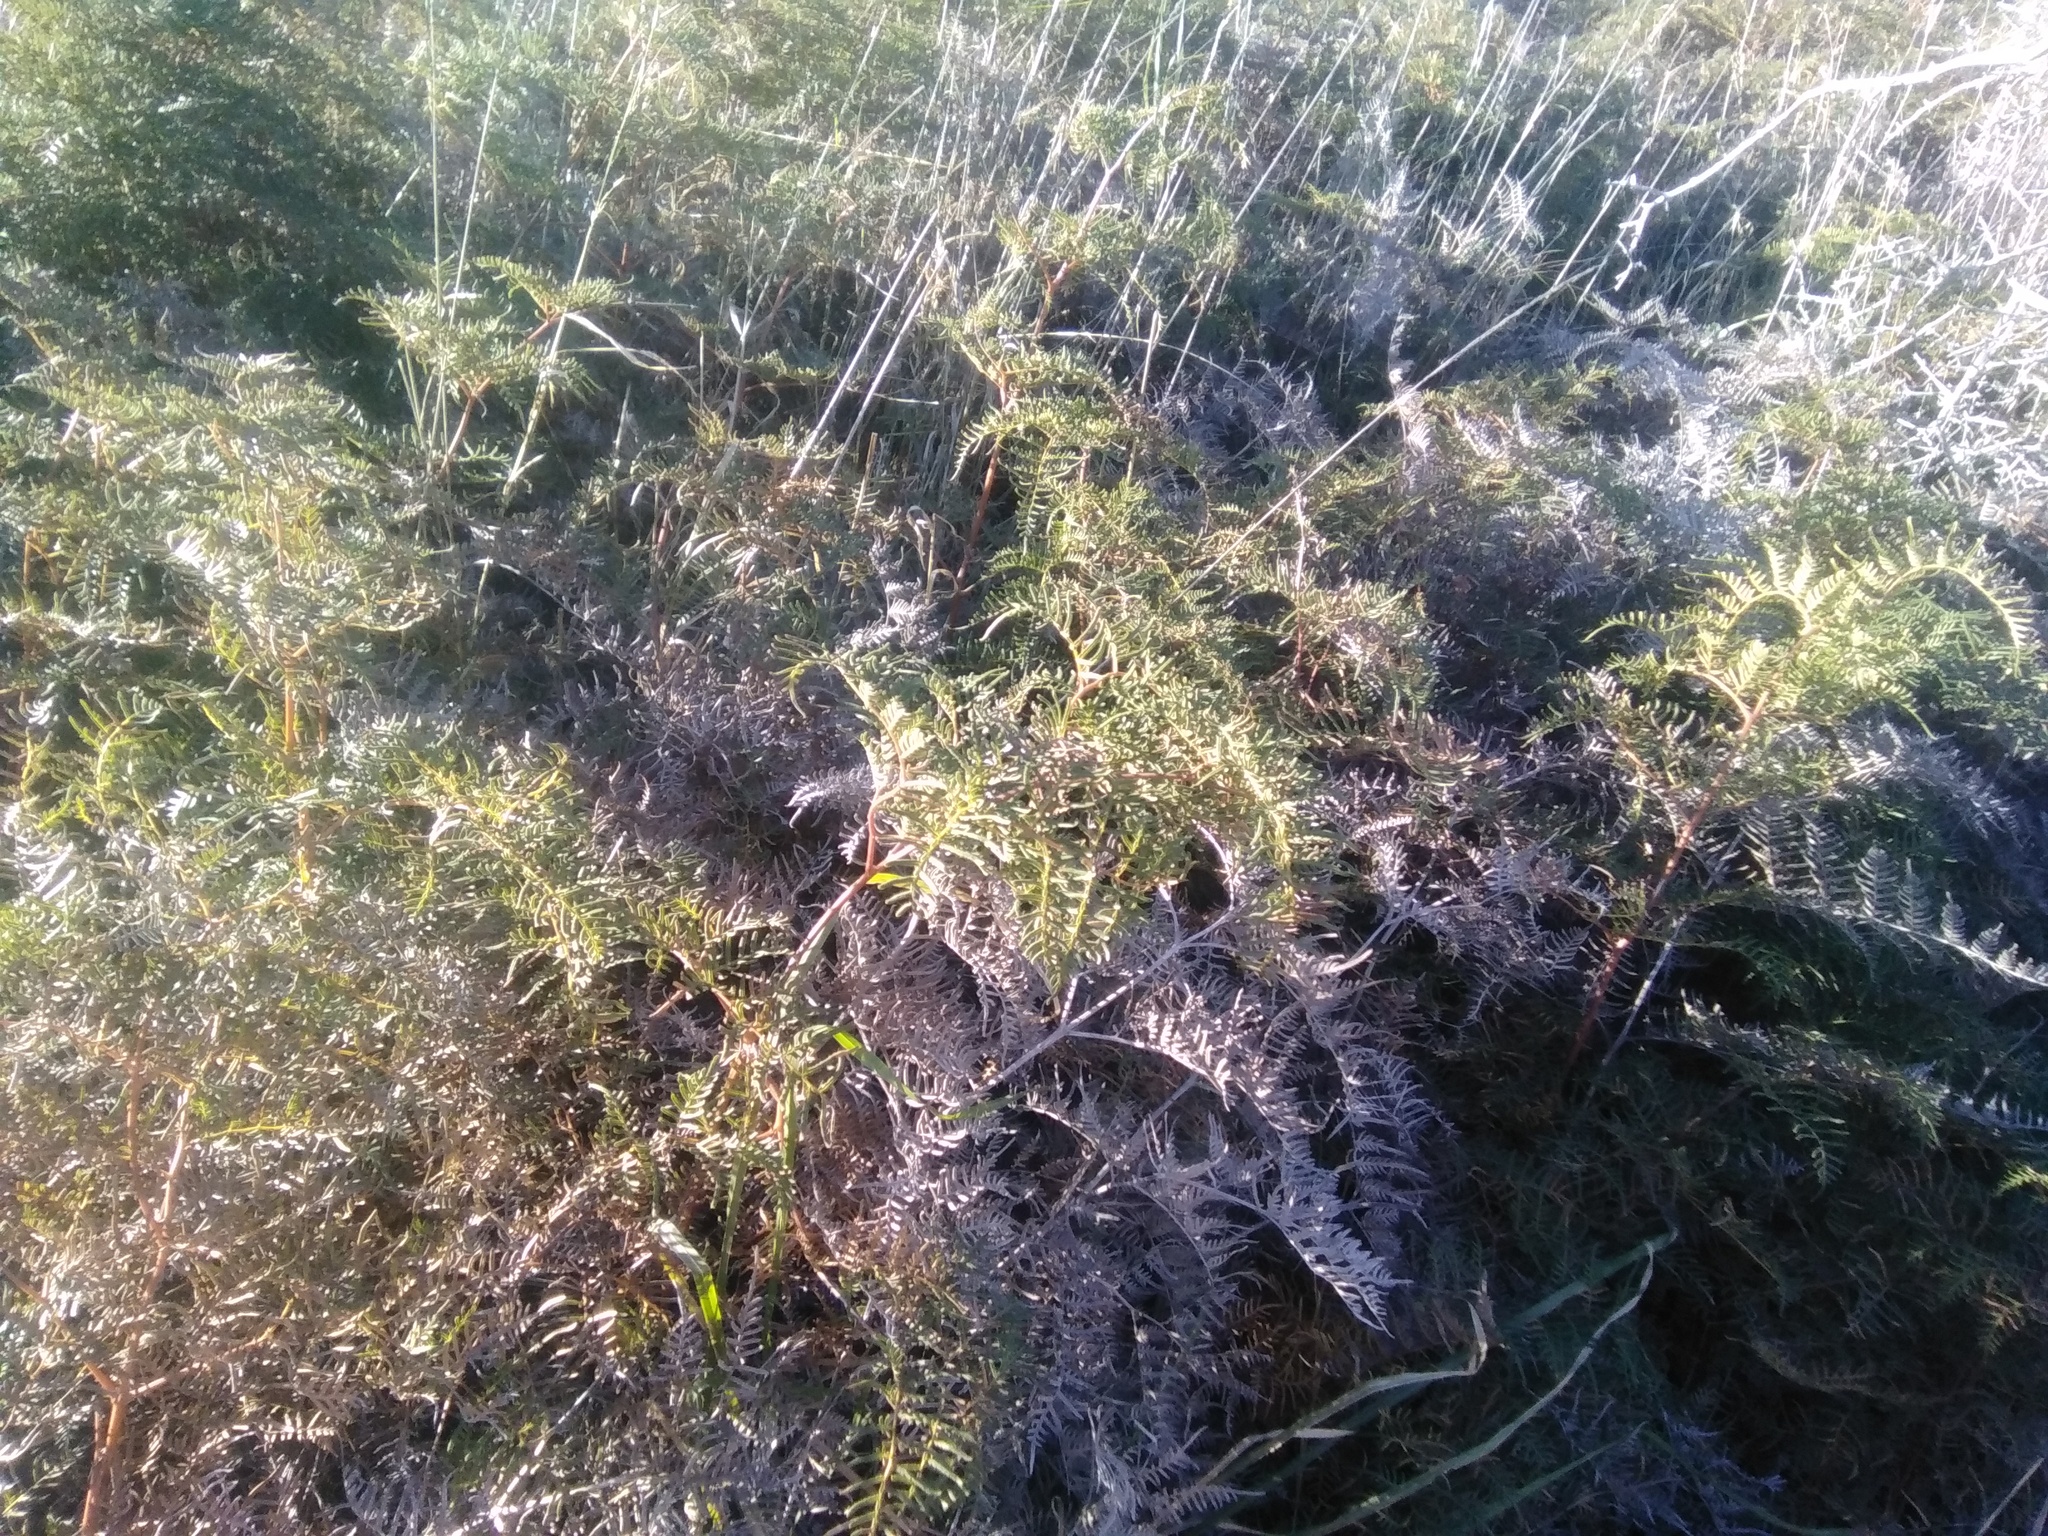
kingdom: Plantae
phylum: Tracheophyta
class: Polypodiopsida
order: Polypodiales
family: Dennstaedtiaceae
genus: Pteridium
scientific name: Pteridium esculentum
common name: Bracken fern
